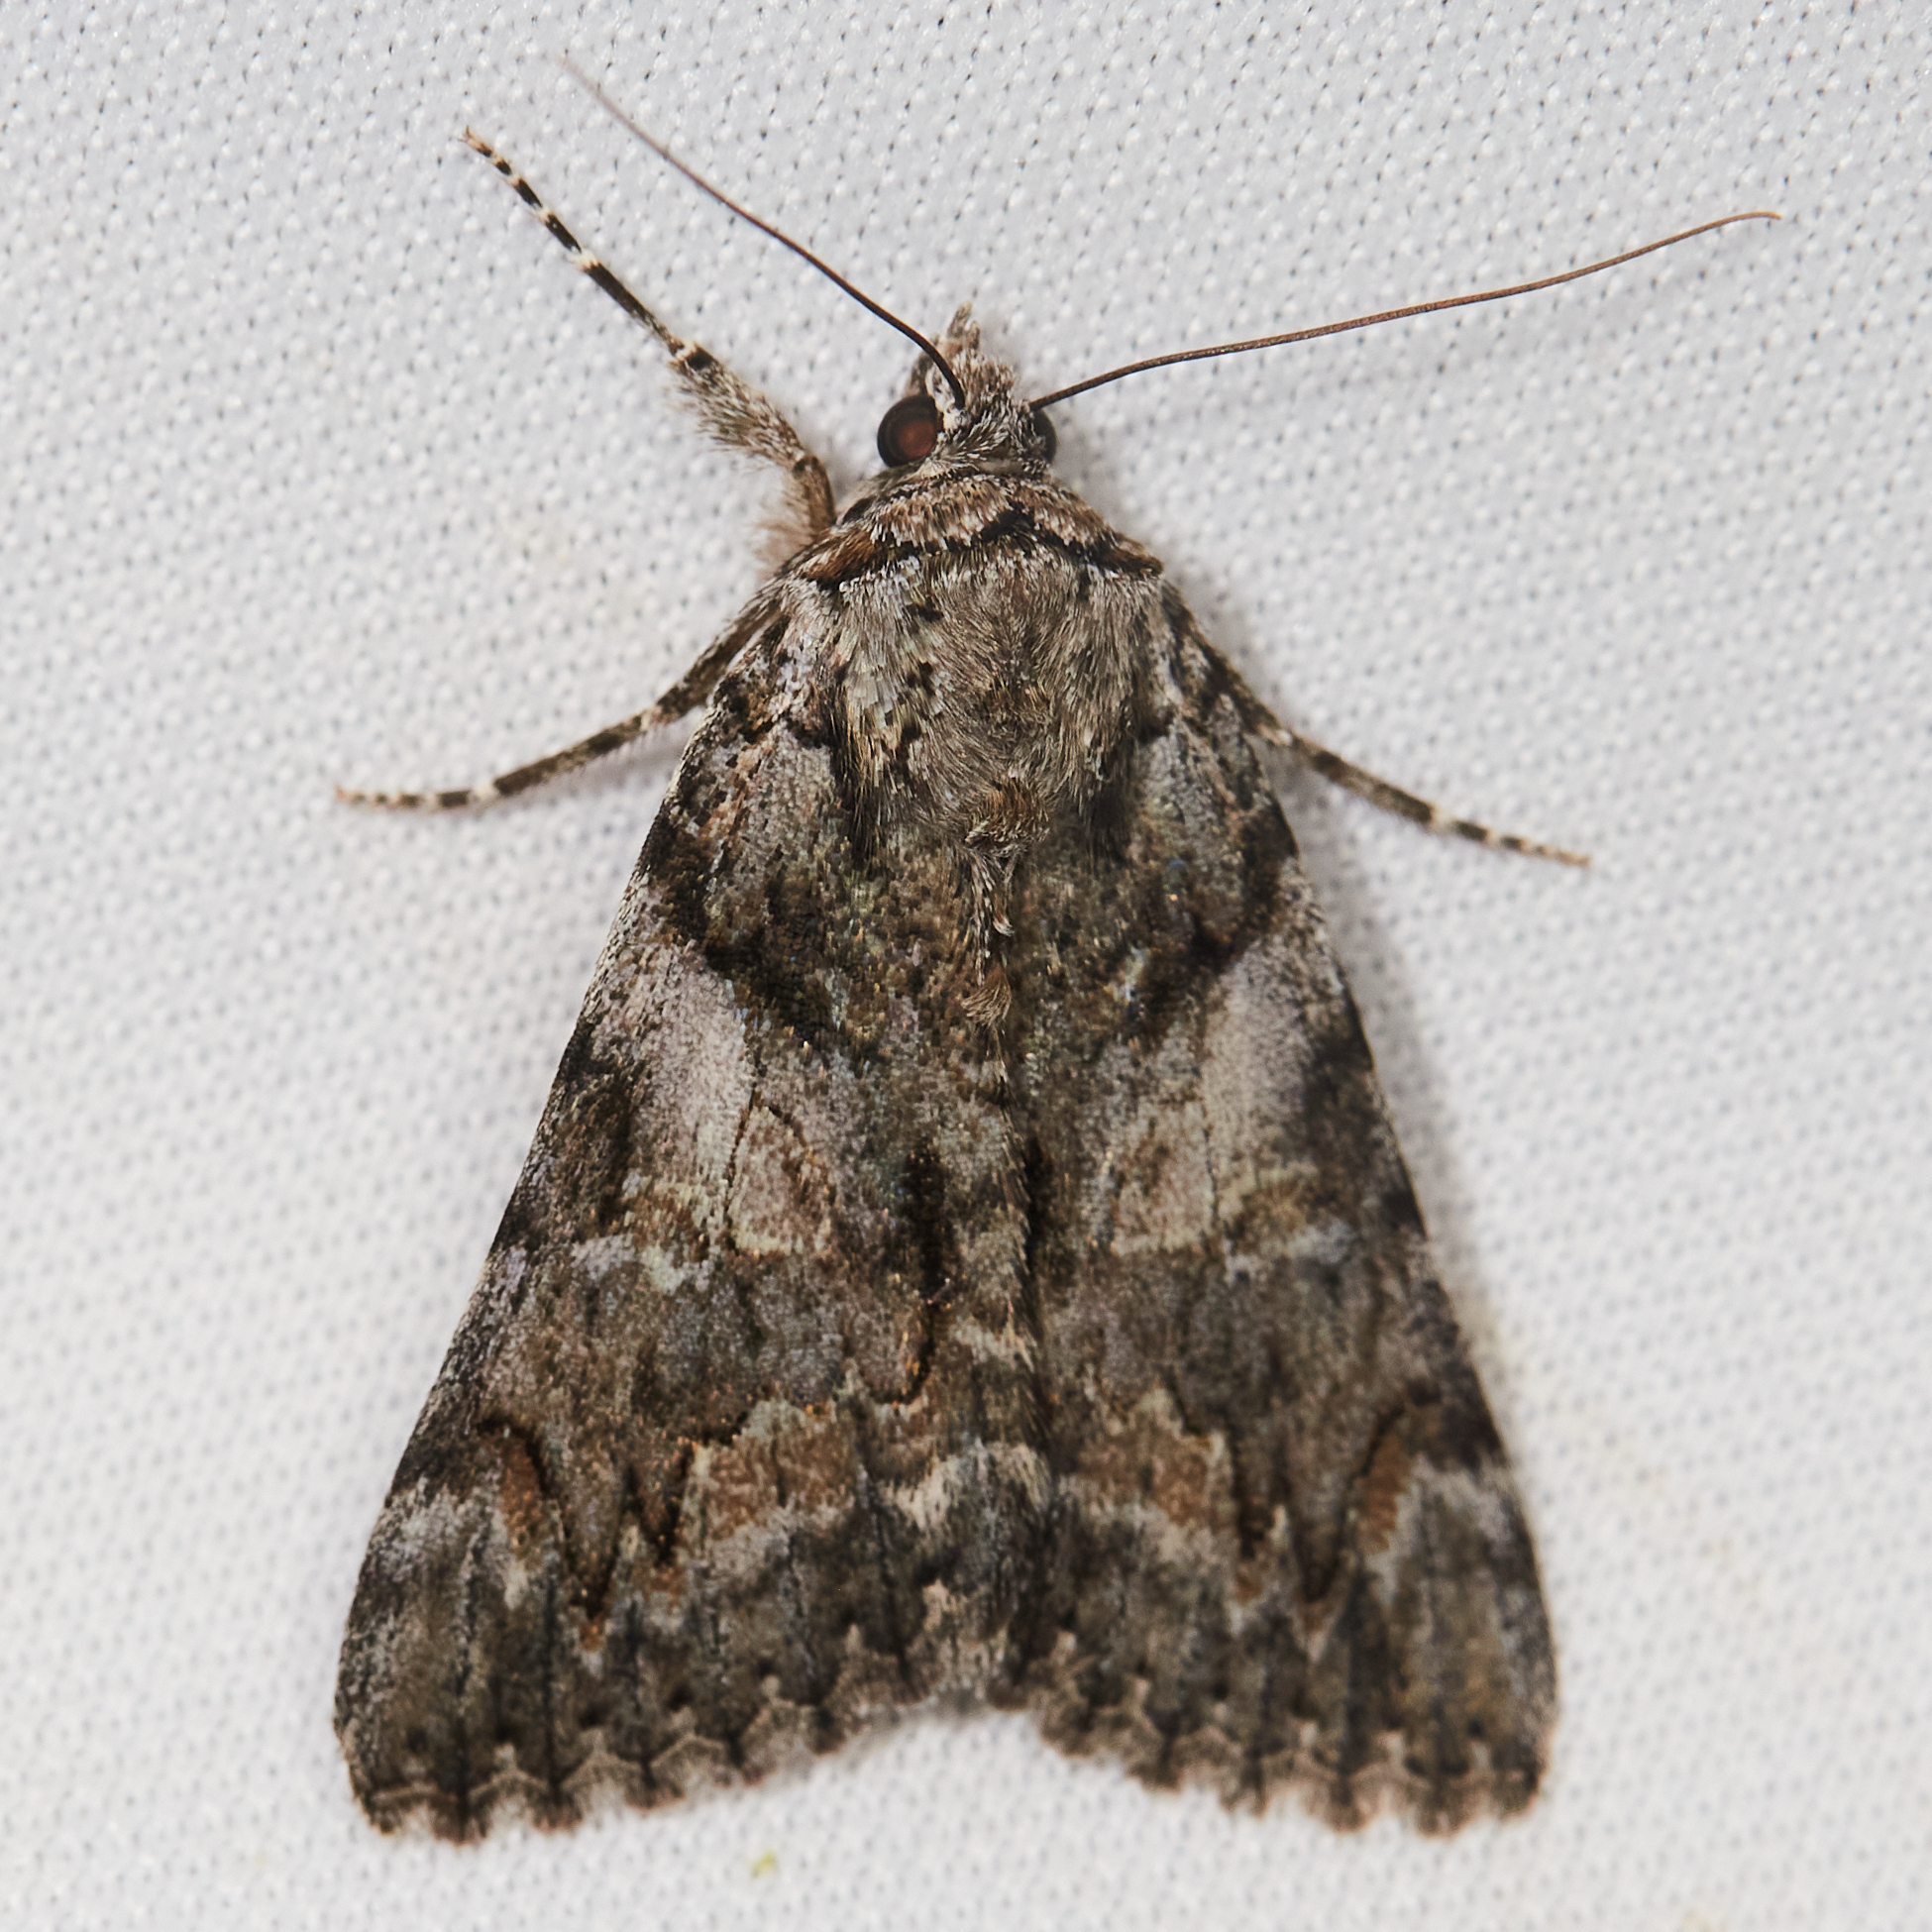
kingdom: Animalia
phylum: Arthropoda
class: Insecta
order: Lepidoptera
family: Erebidae
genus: Catocala
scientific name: Catocala verrilliana
